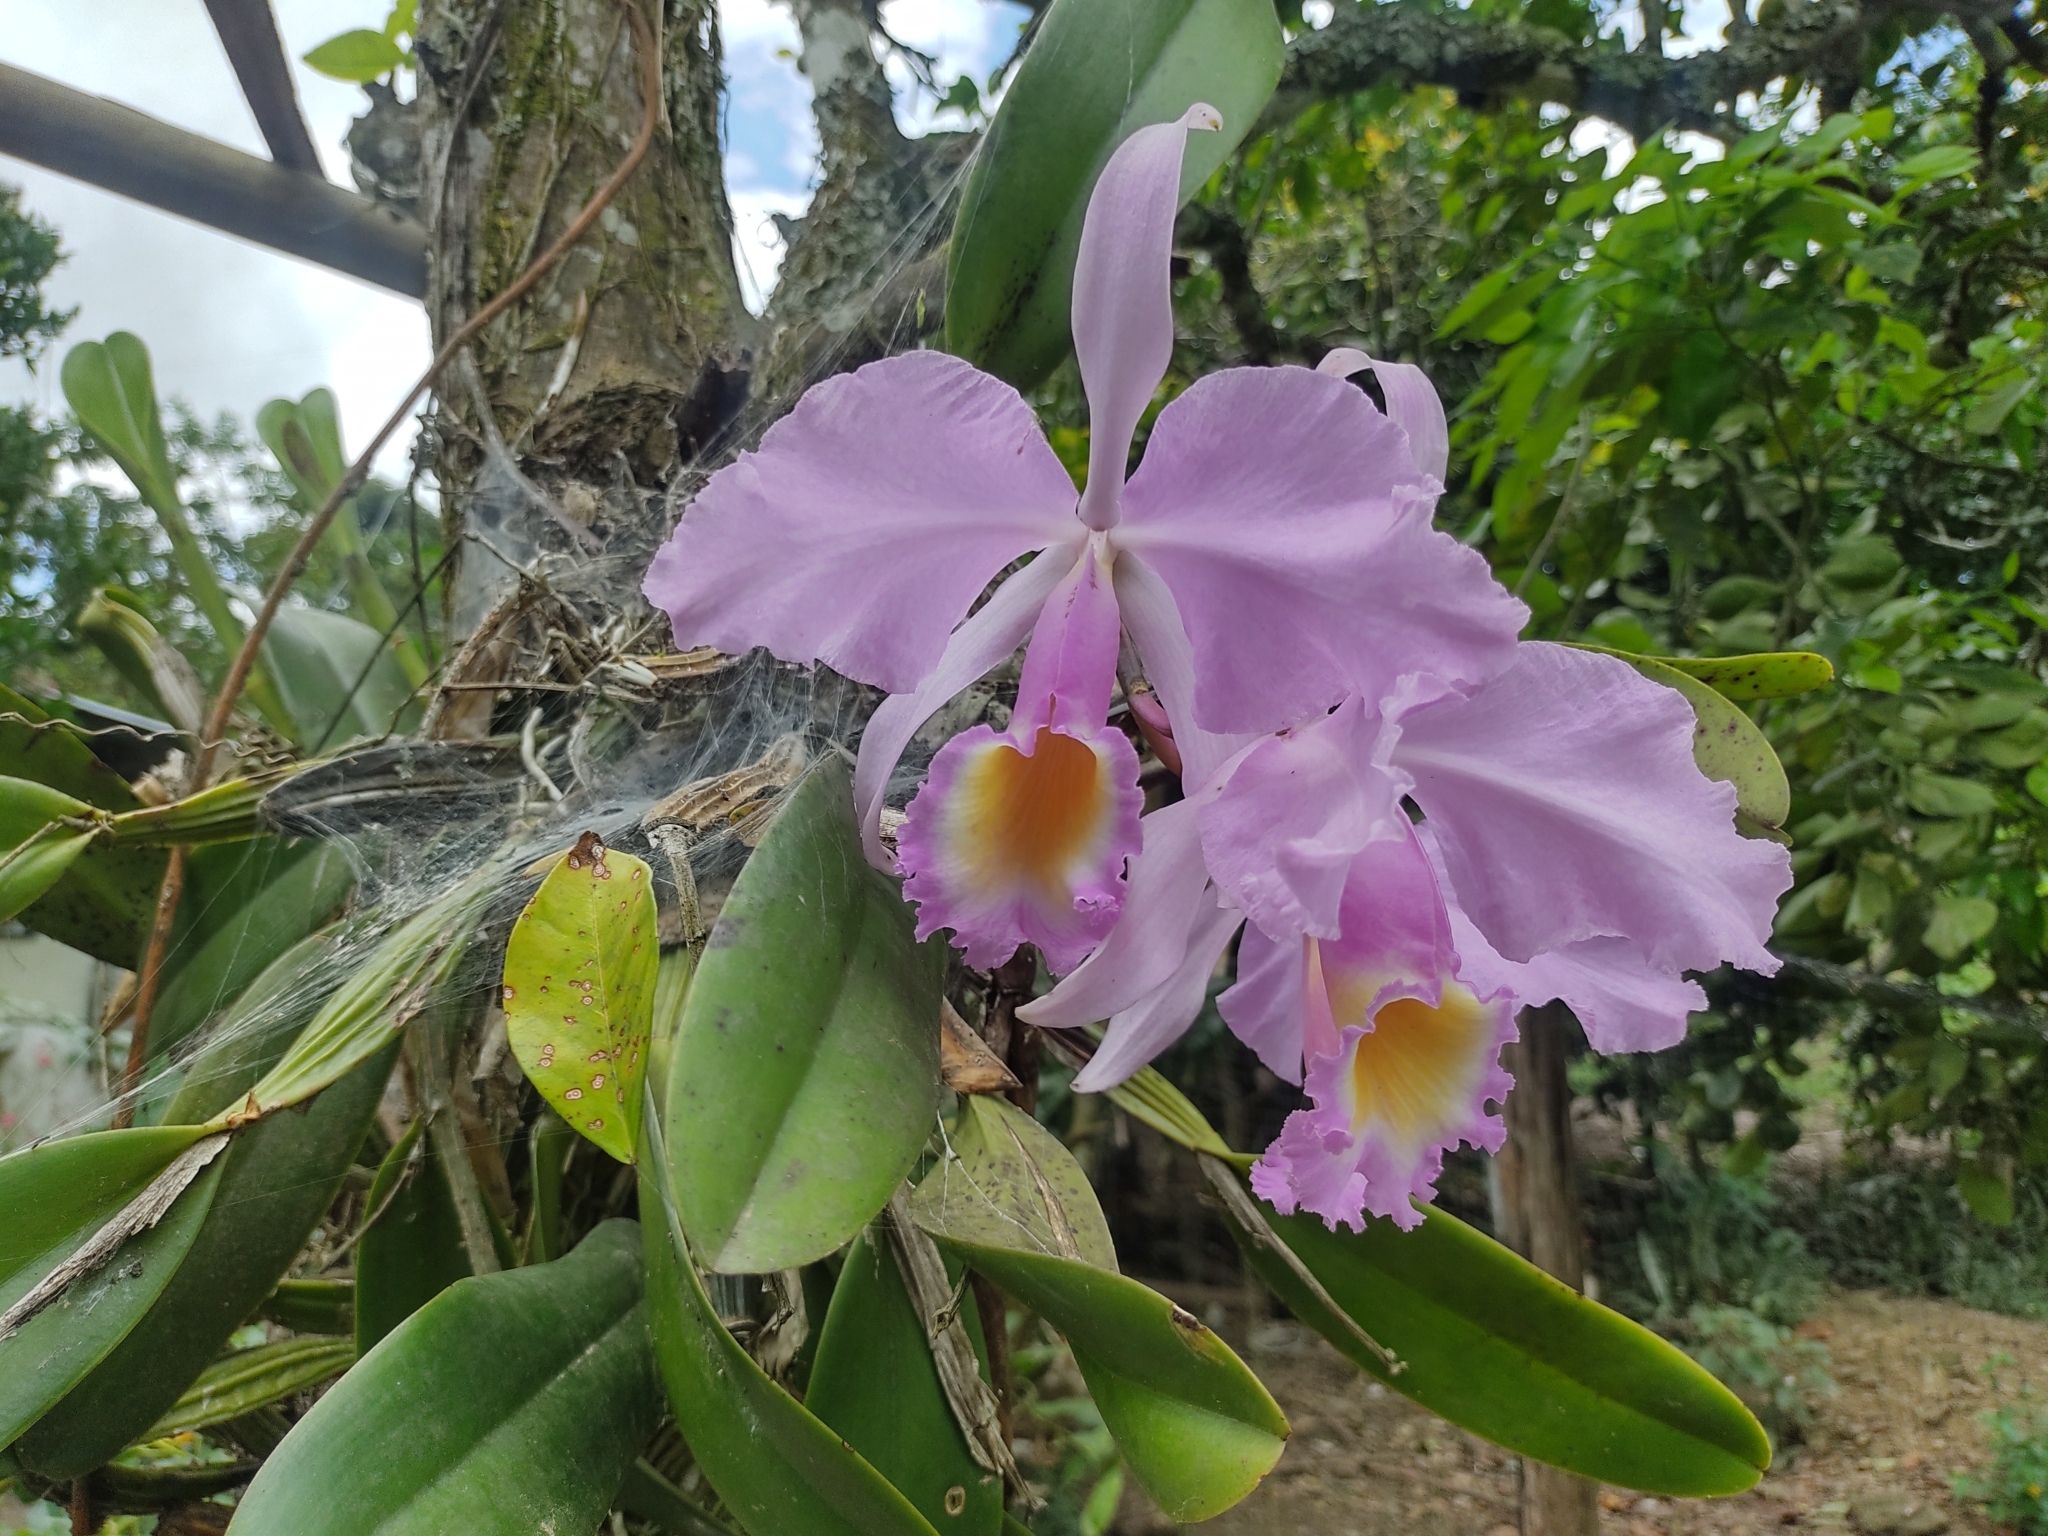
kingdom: Plantae
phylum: Tracheophyta
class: Liliopsida
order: Asparagales
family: Orchidaceae
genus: Cattleya
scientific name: Cattleya trianae
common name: Christmas orchid
